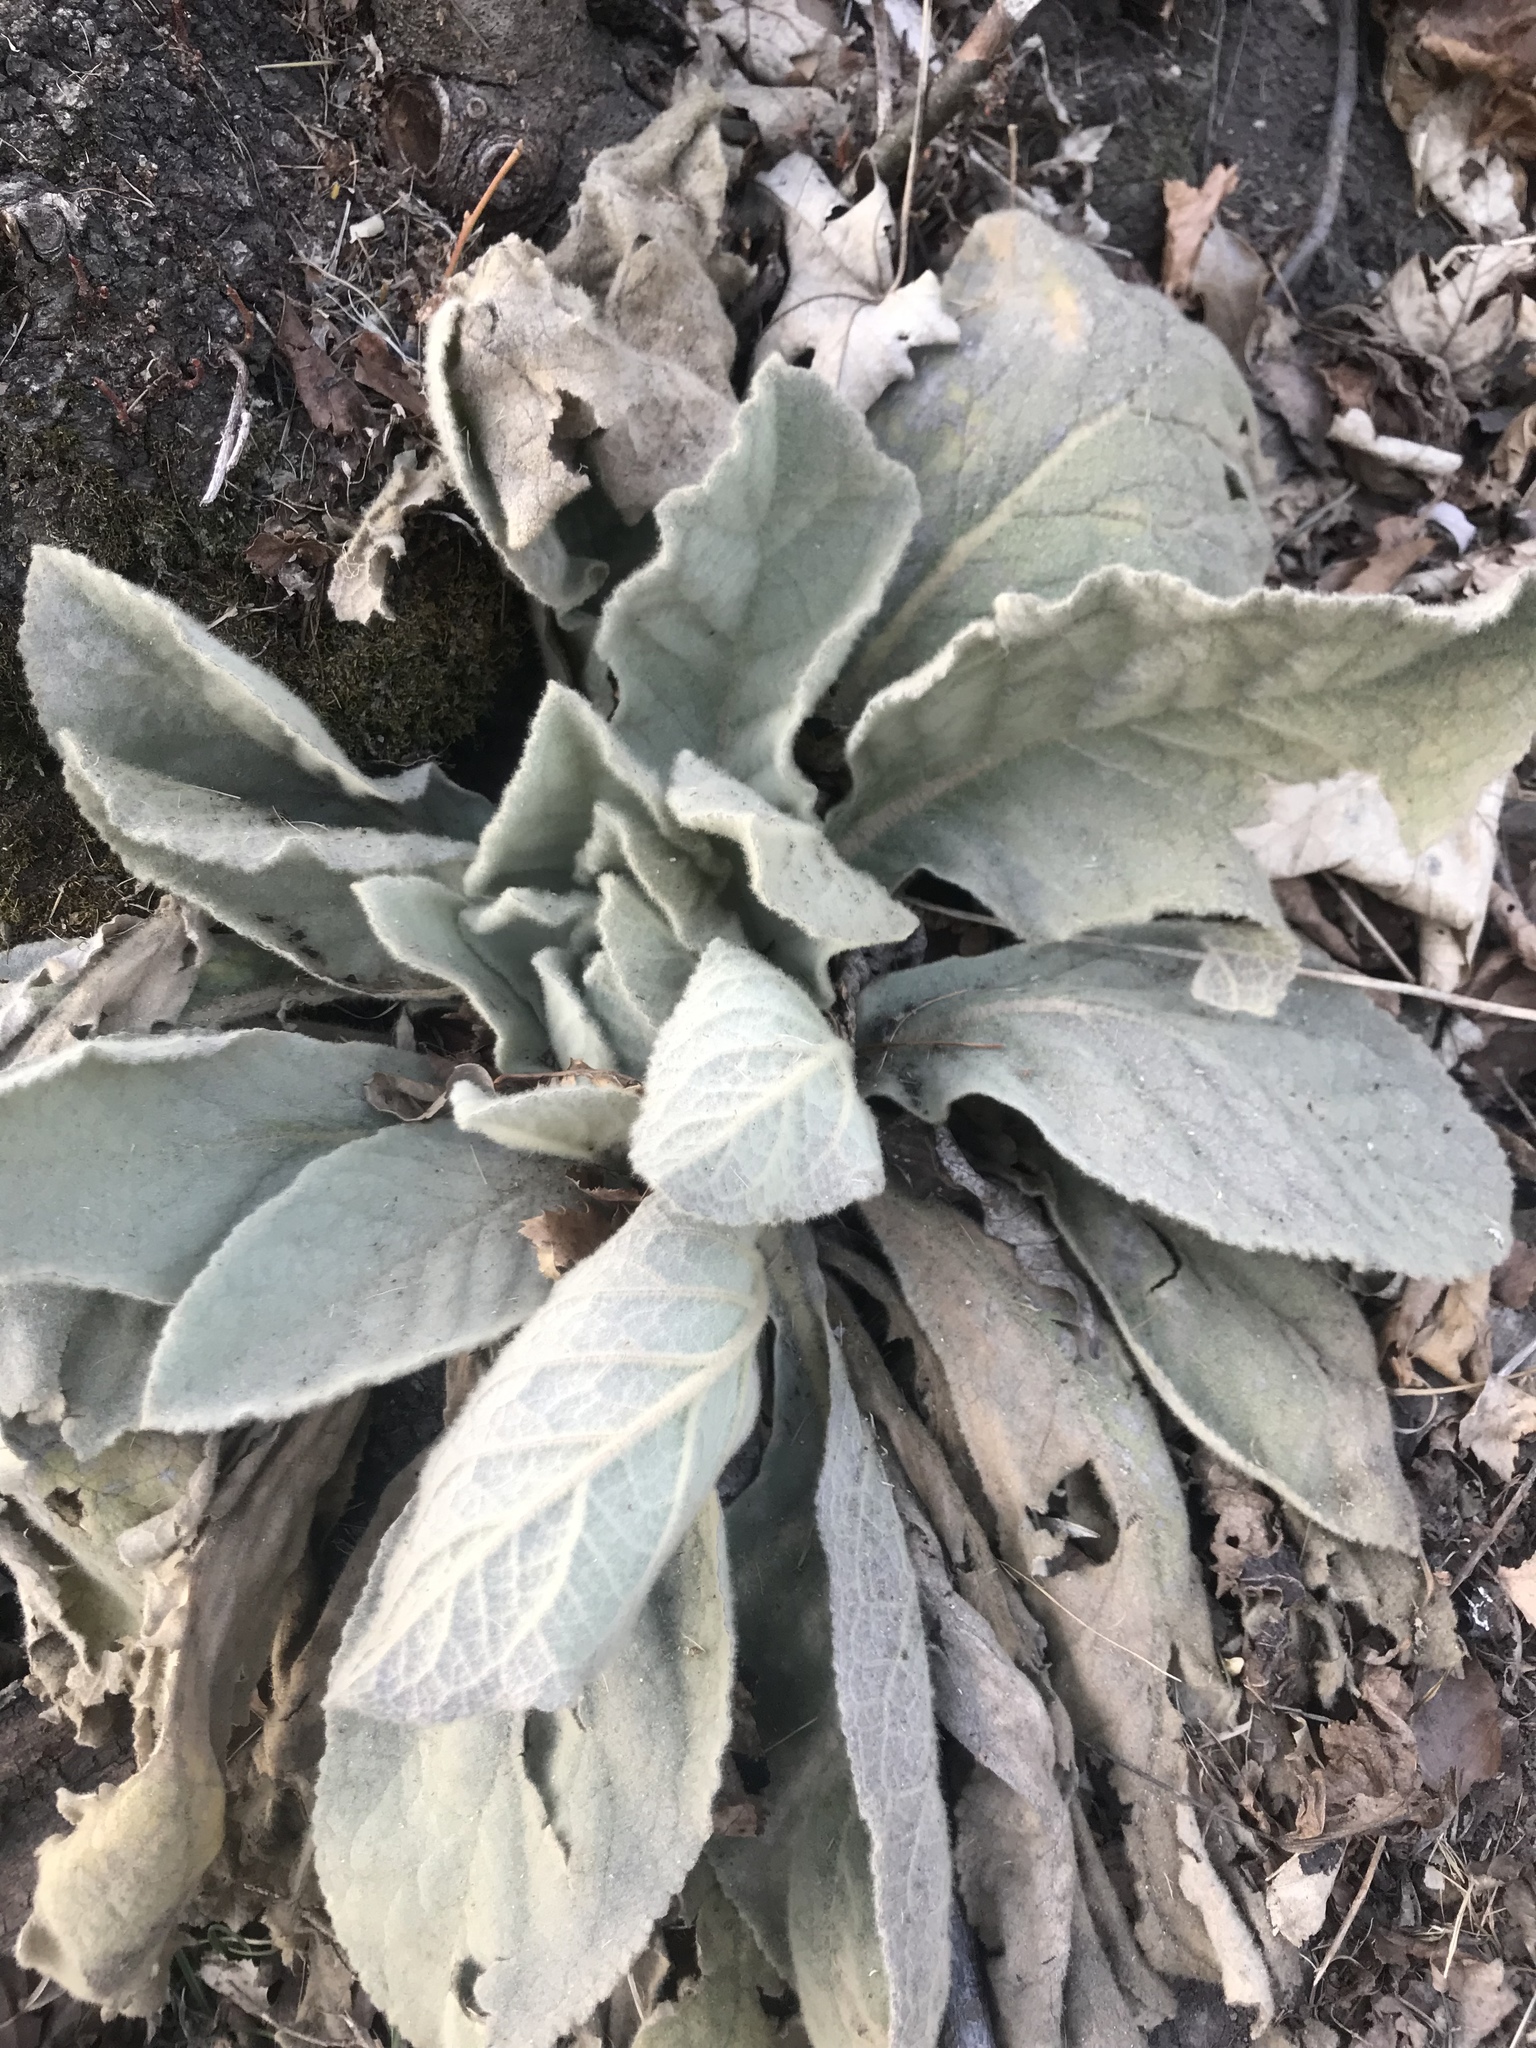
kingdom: Plantae
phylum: Tracheophyta
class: Magnoliopsida
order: Lamiales
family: Scrophulariaceae
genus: Verbascum
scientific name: Verbascum thapsus
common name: Common mullein
